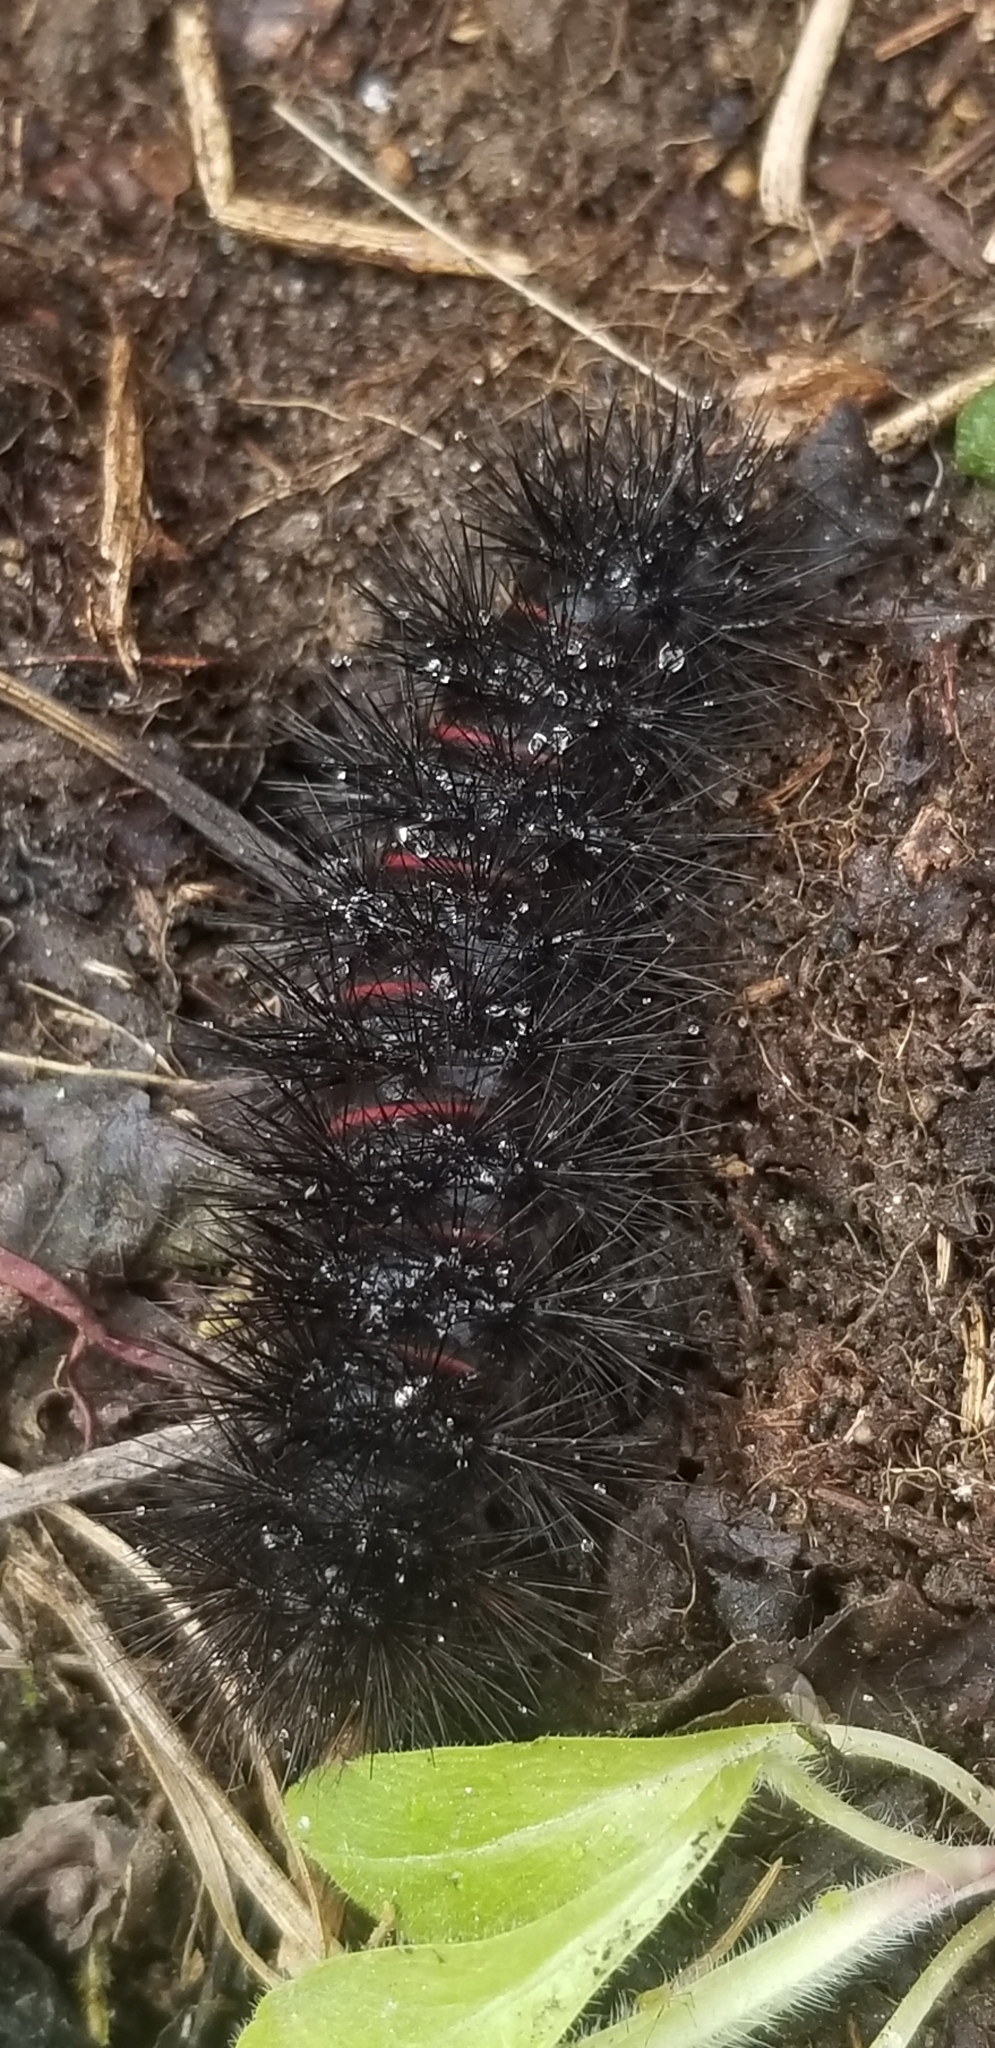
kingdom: Animalia
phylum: Arthropoda
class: Insecta
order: Lepidoptera
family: Erebidae
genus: Hypercompe
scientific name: Hypercompe scribonia
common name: Giant leopard moth
